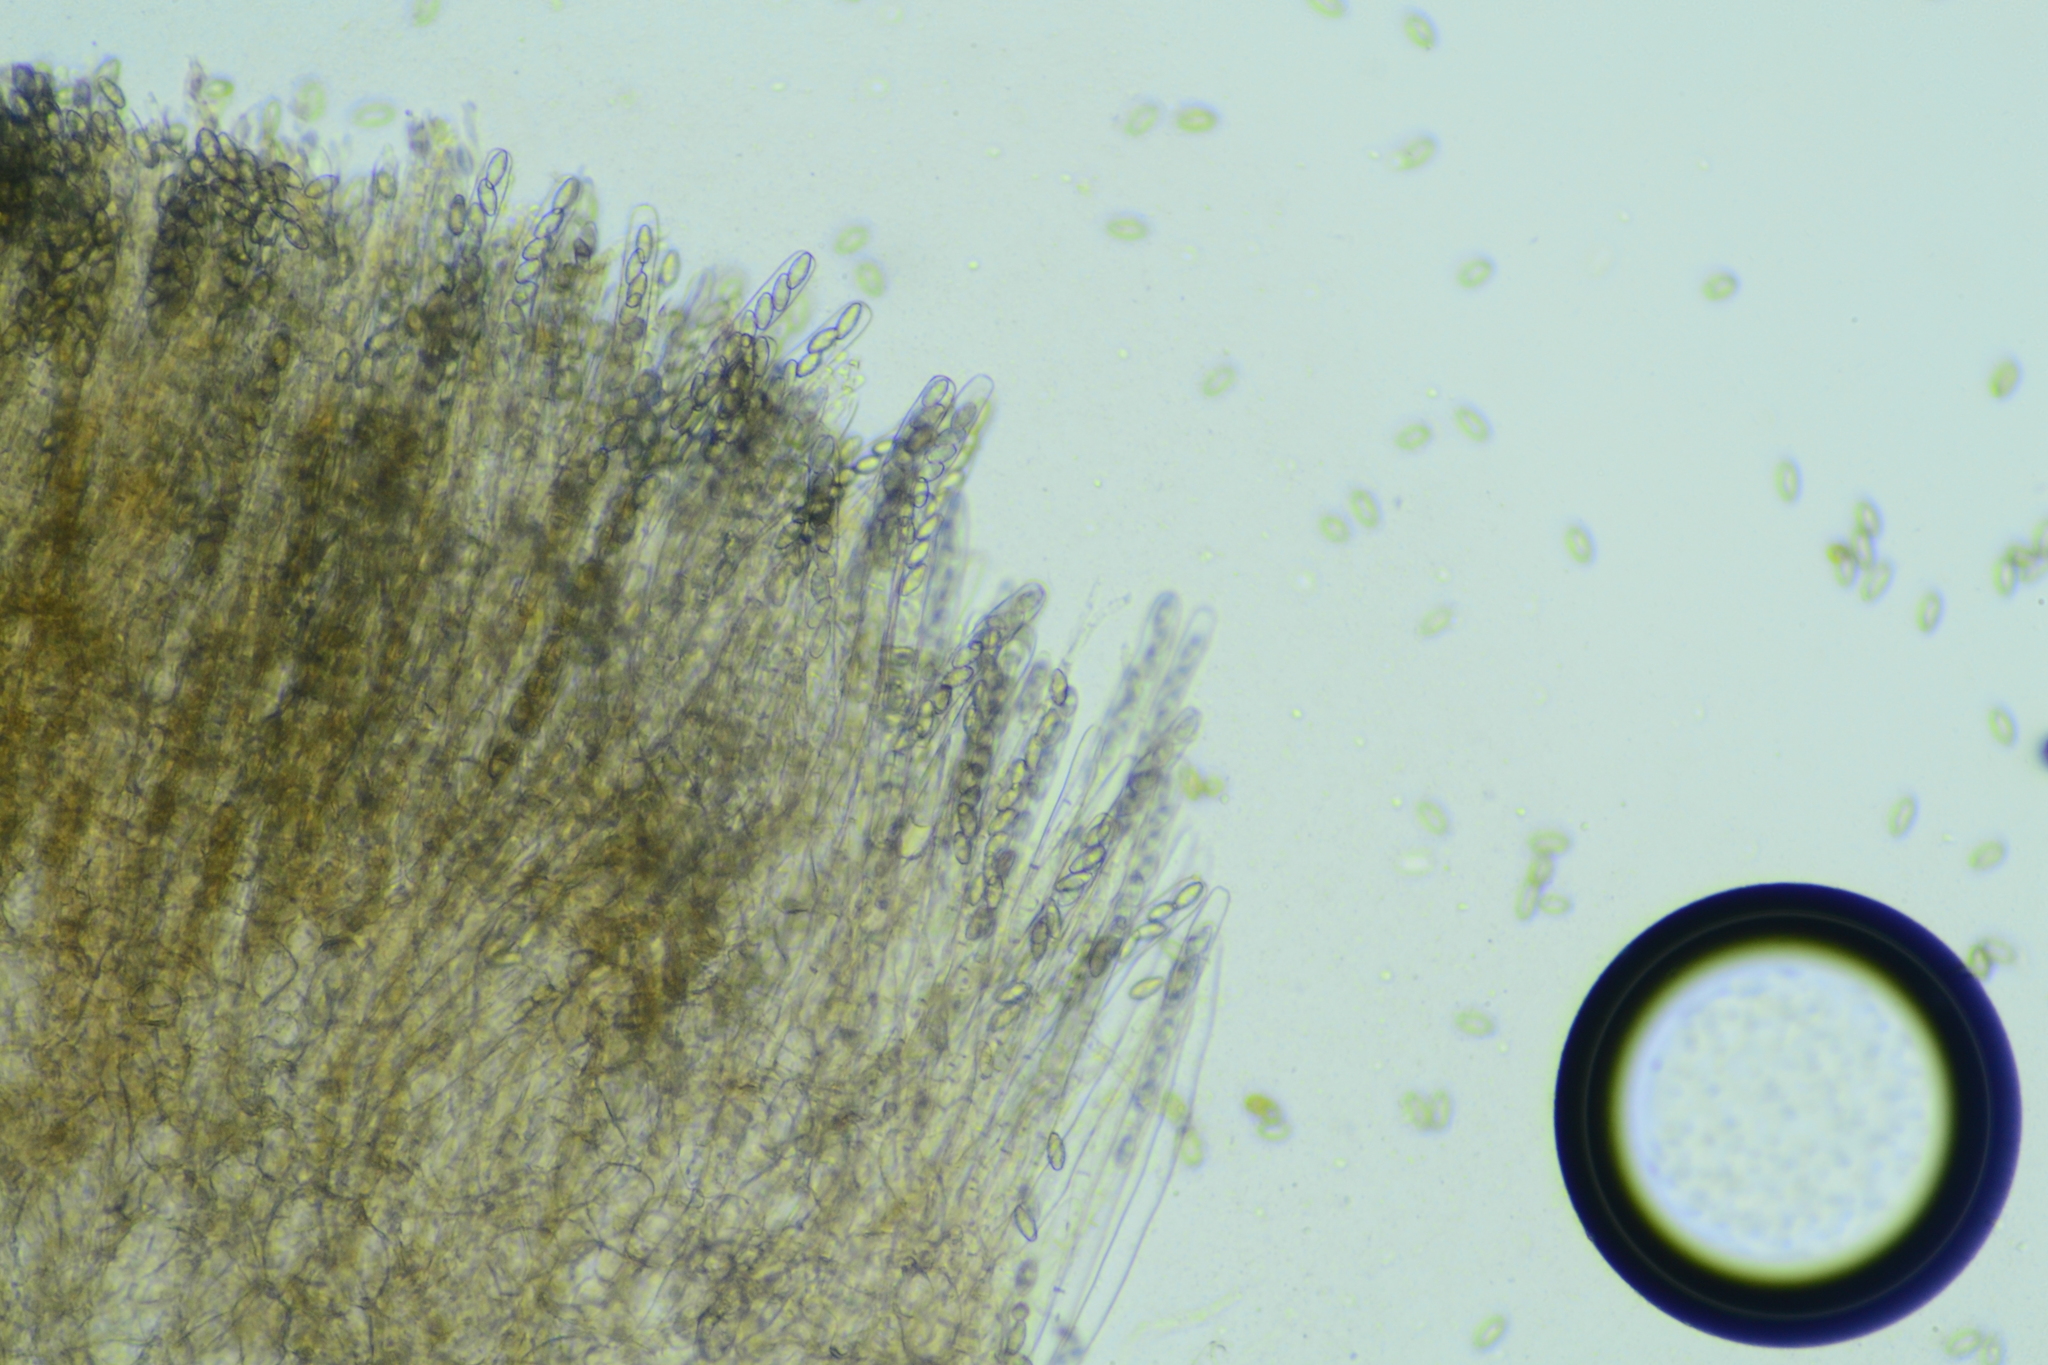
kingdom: Fungi
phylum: Ascomycota
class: Pezizomycetes
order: Pezizales
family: Pezizaceae
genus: Phylloscypha
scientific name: Phylloscypha phyllogena
